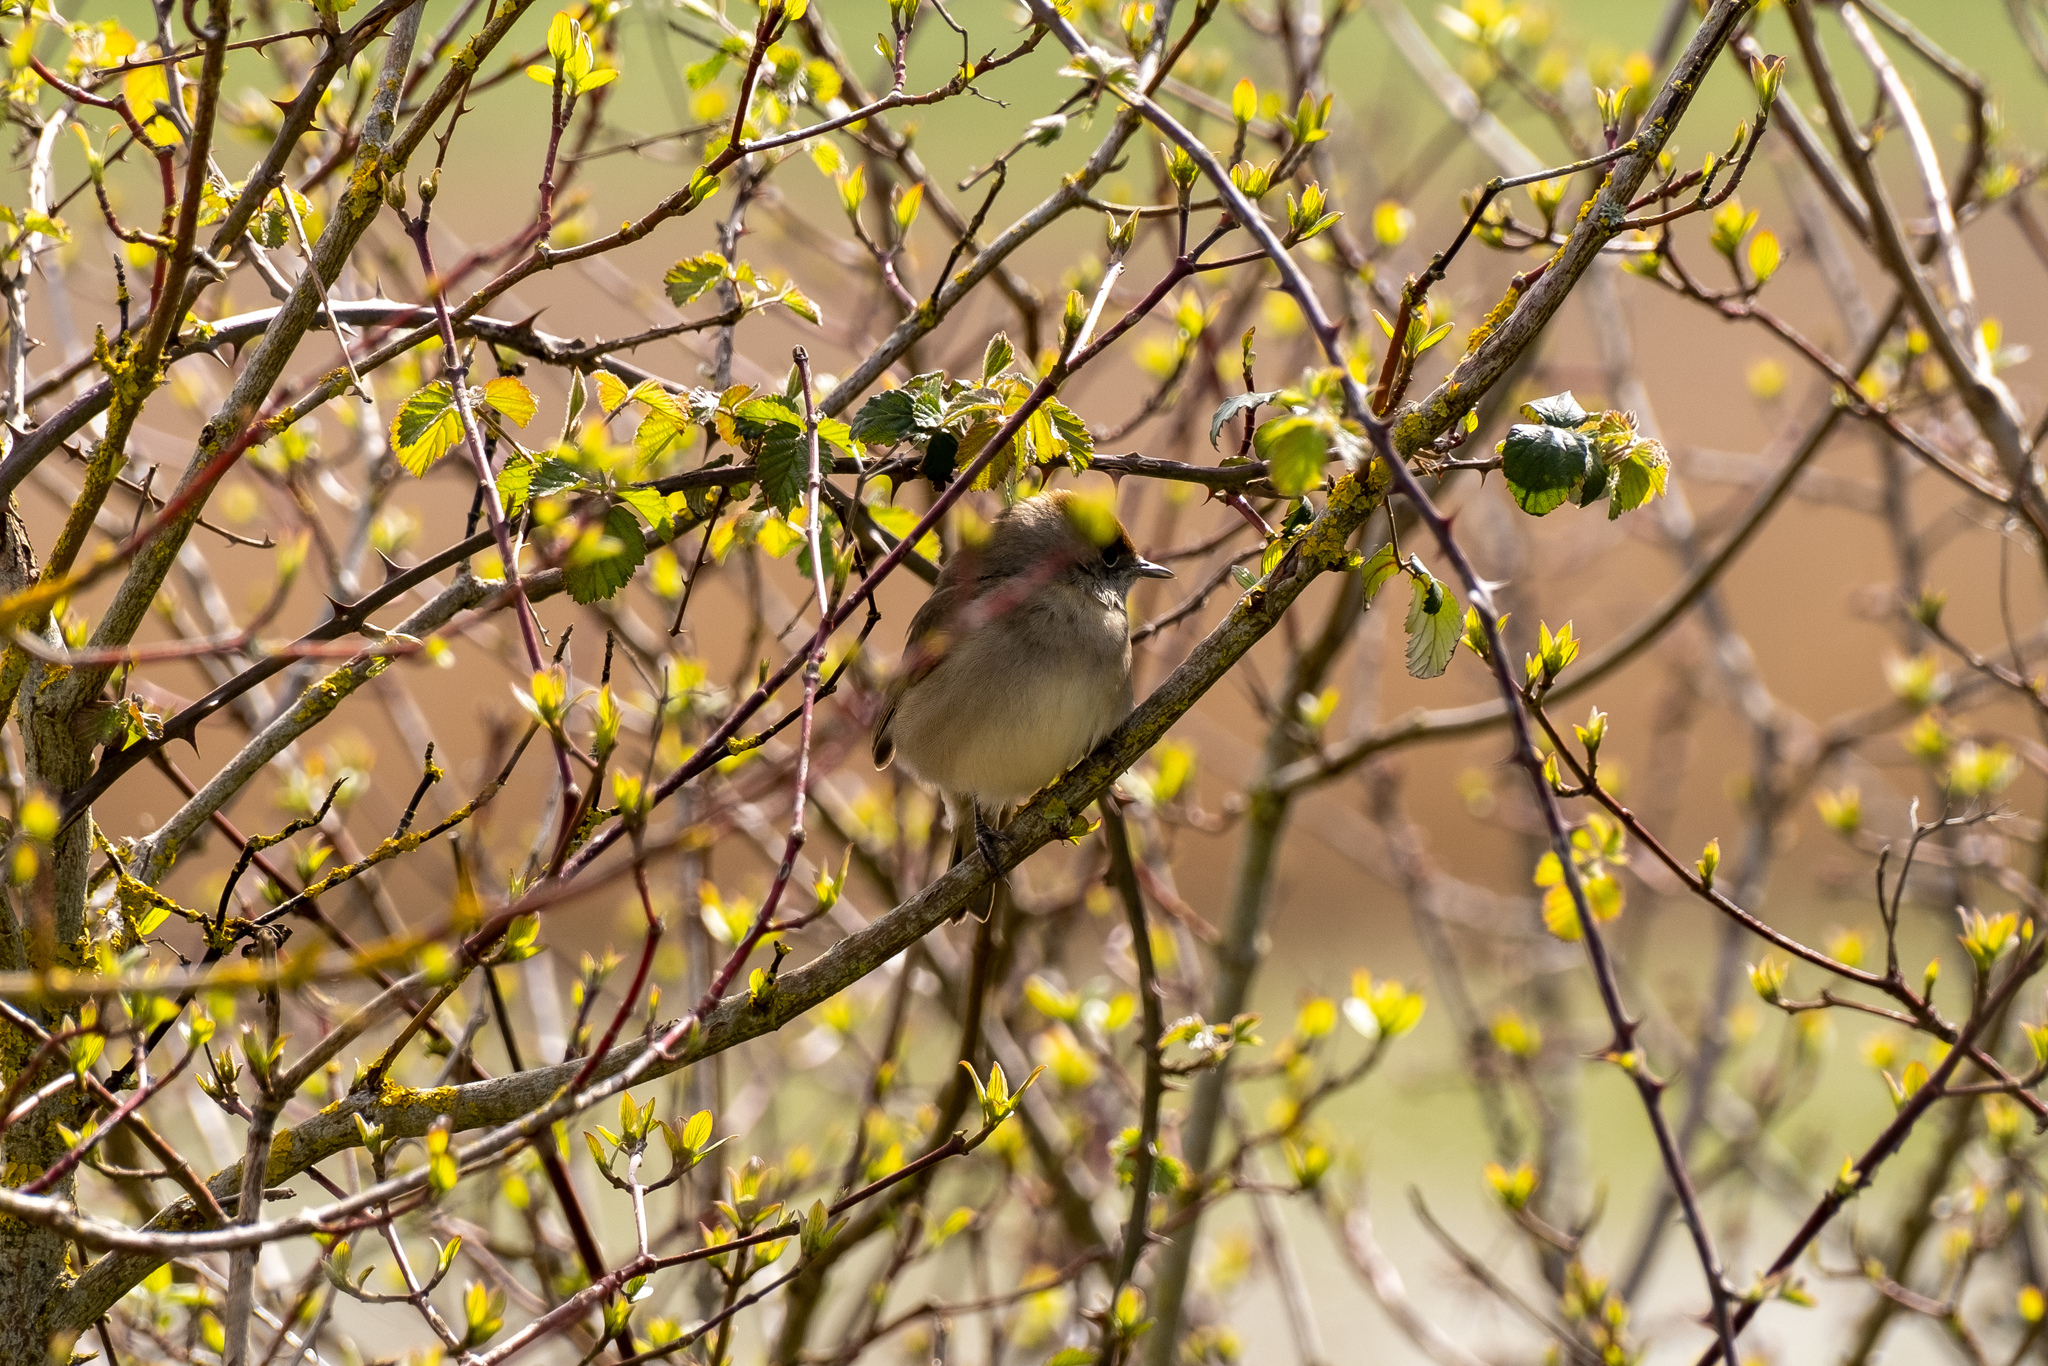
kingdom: Animalia
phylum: Chordata
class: Aves
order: Passeriformes
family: Sylviidae
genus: Sylvia
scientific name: Sylvia atricapilla
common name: Eurasian blackcap
